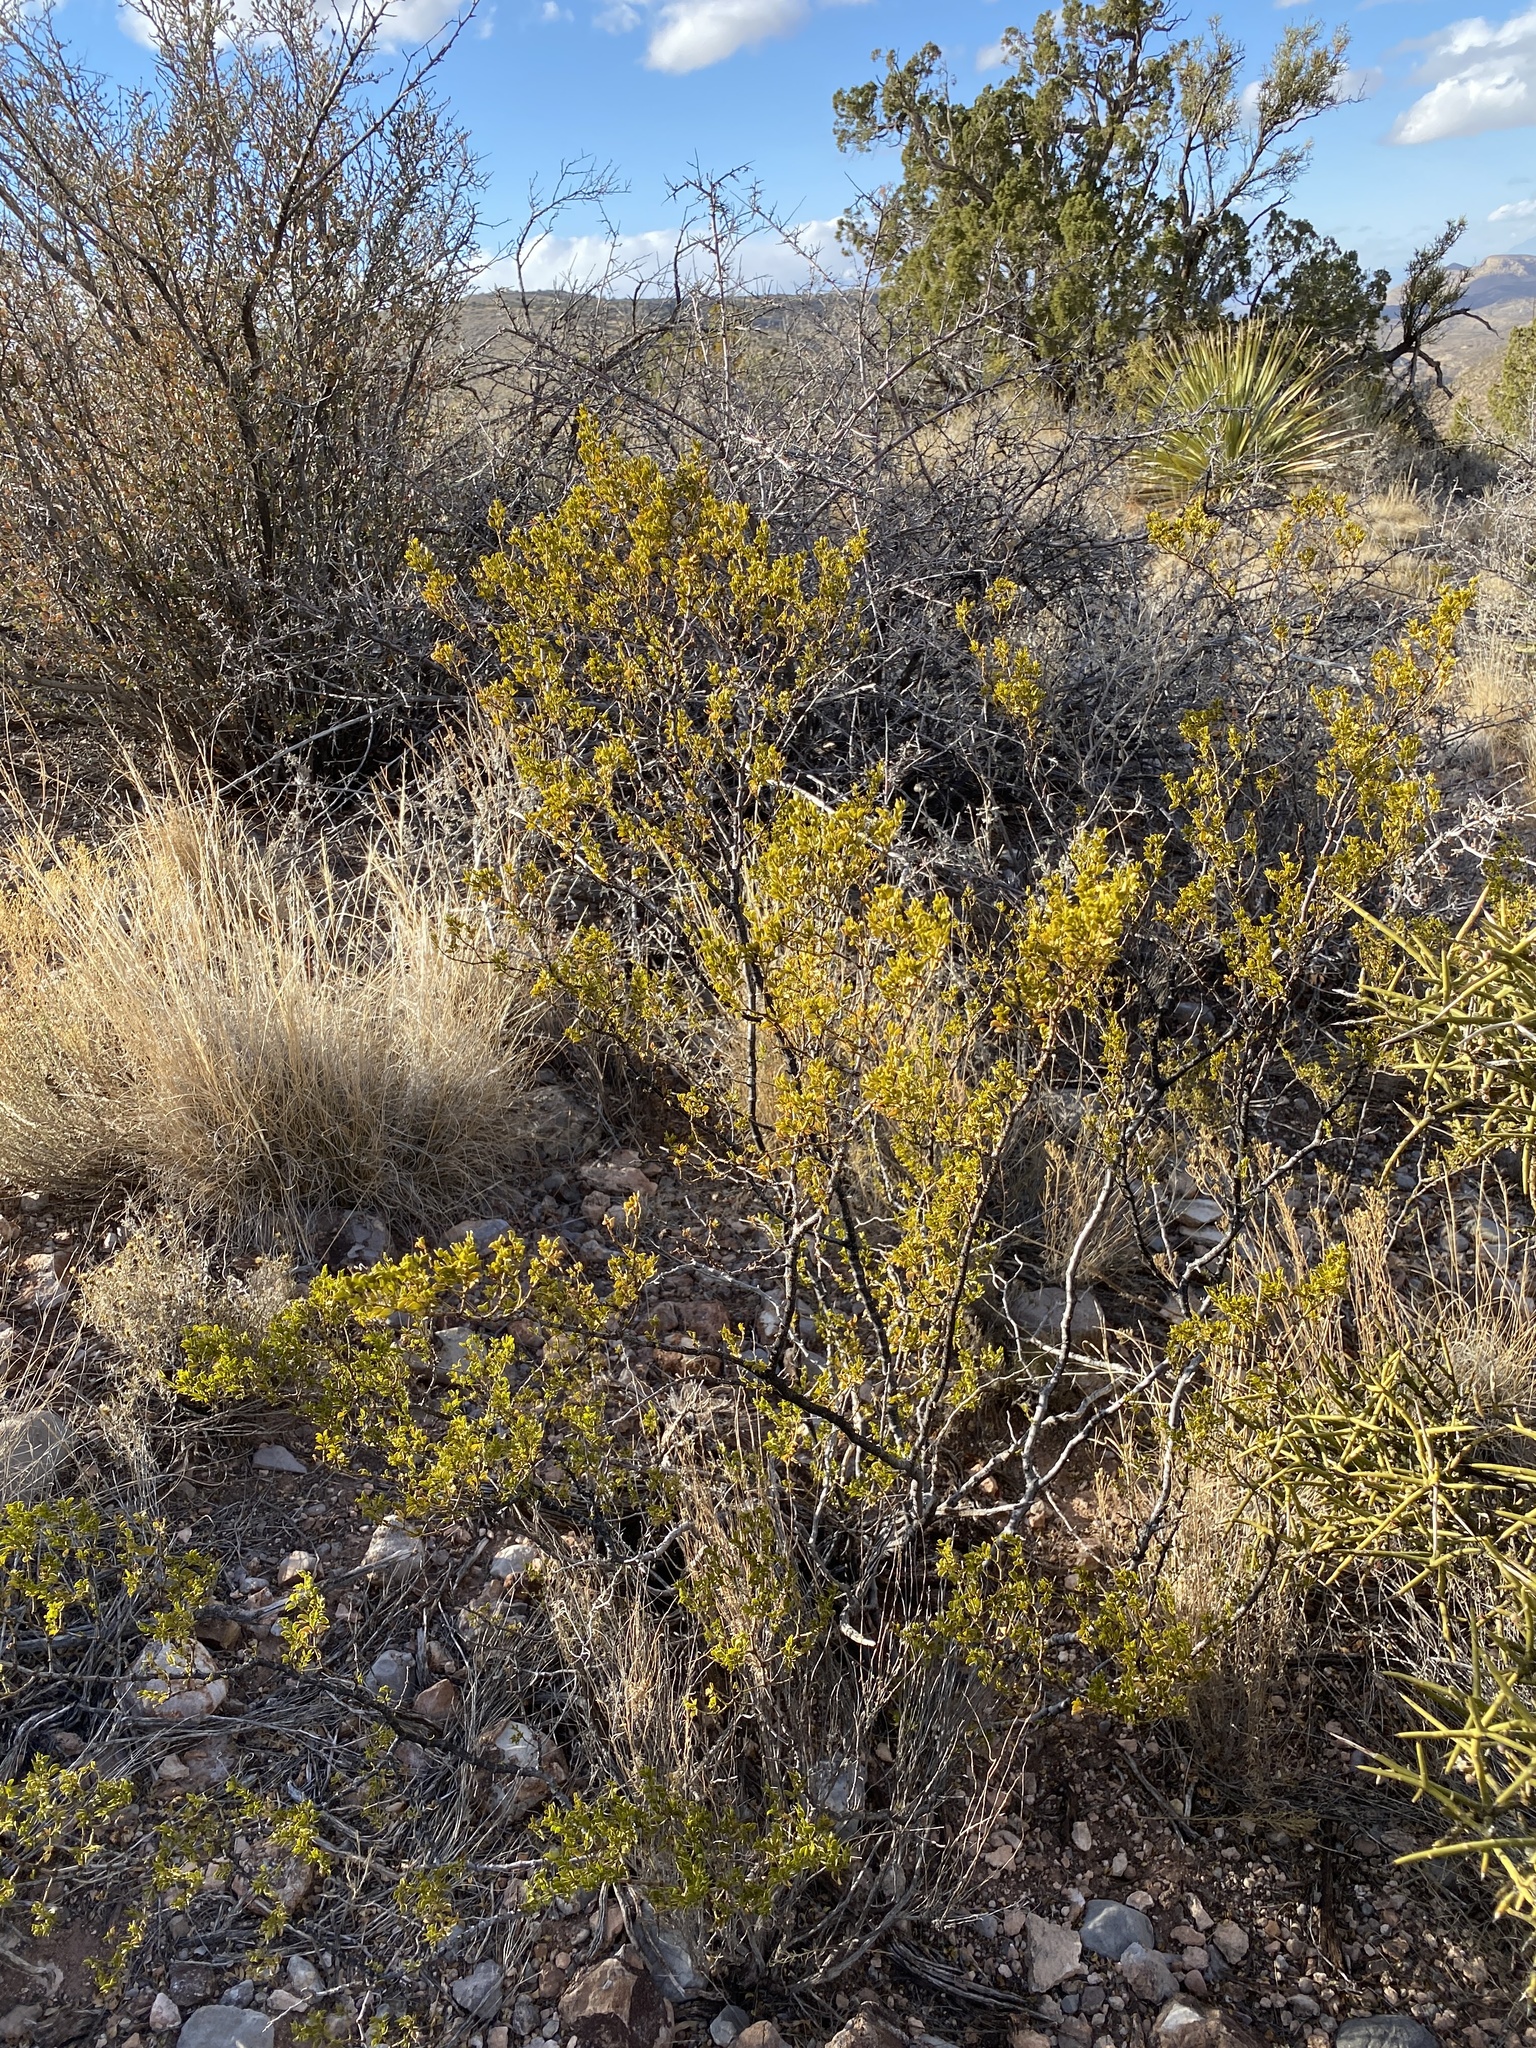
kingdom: Plantae
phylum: Tracheophyta
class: Magnoliopsida
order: Zygophyllales
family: Zygophyllaceae
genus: Larrea
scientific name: Larrea tridentata
